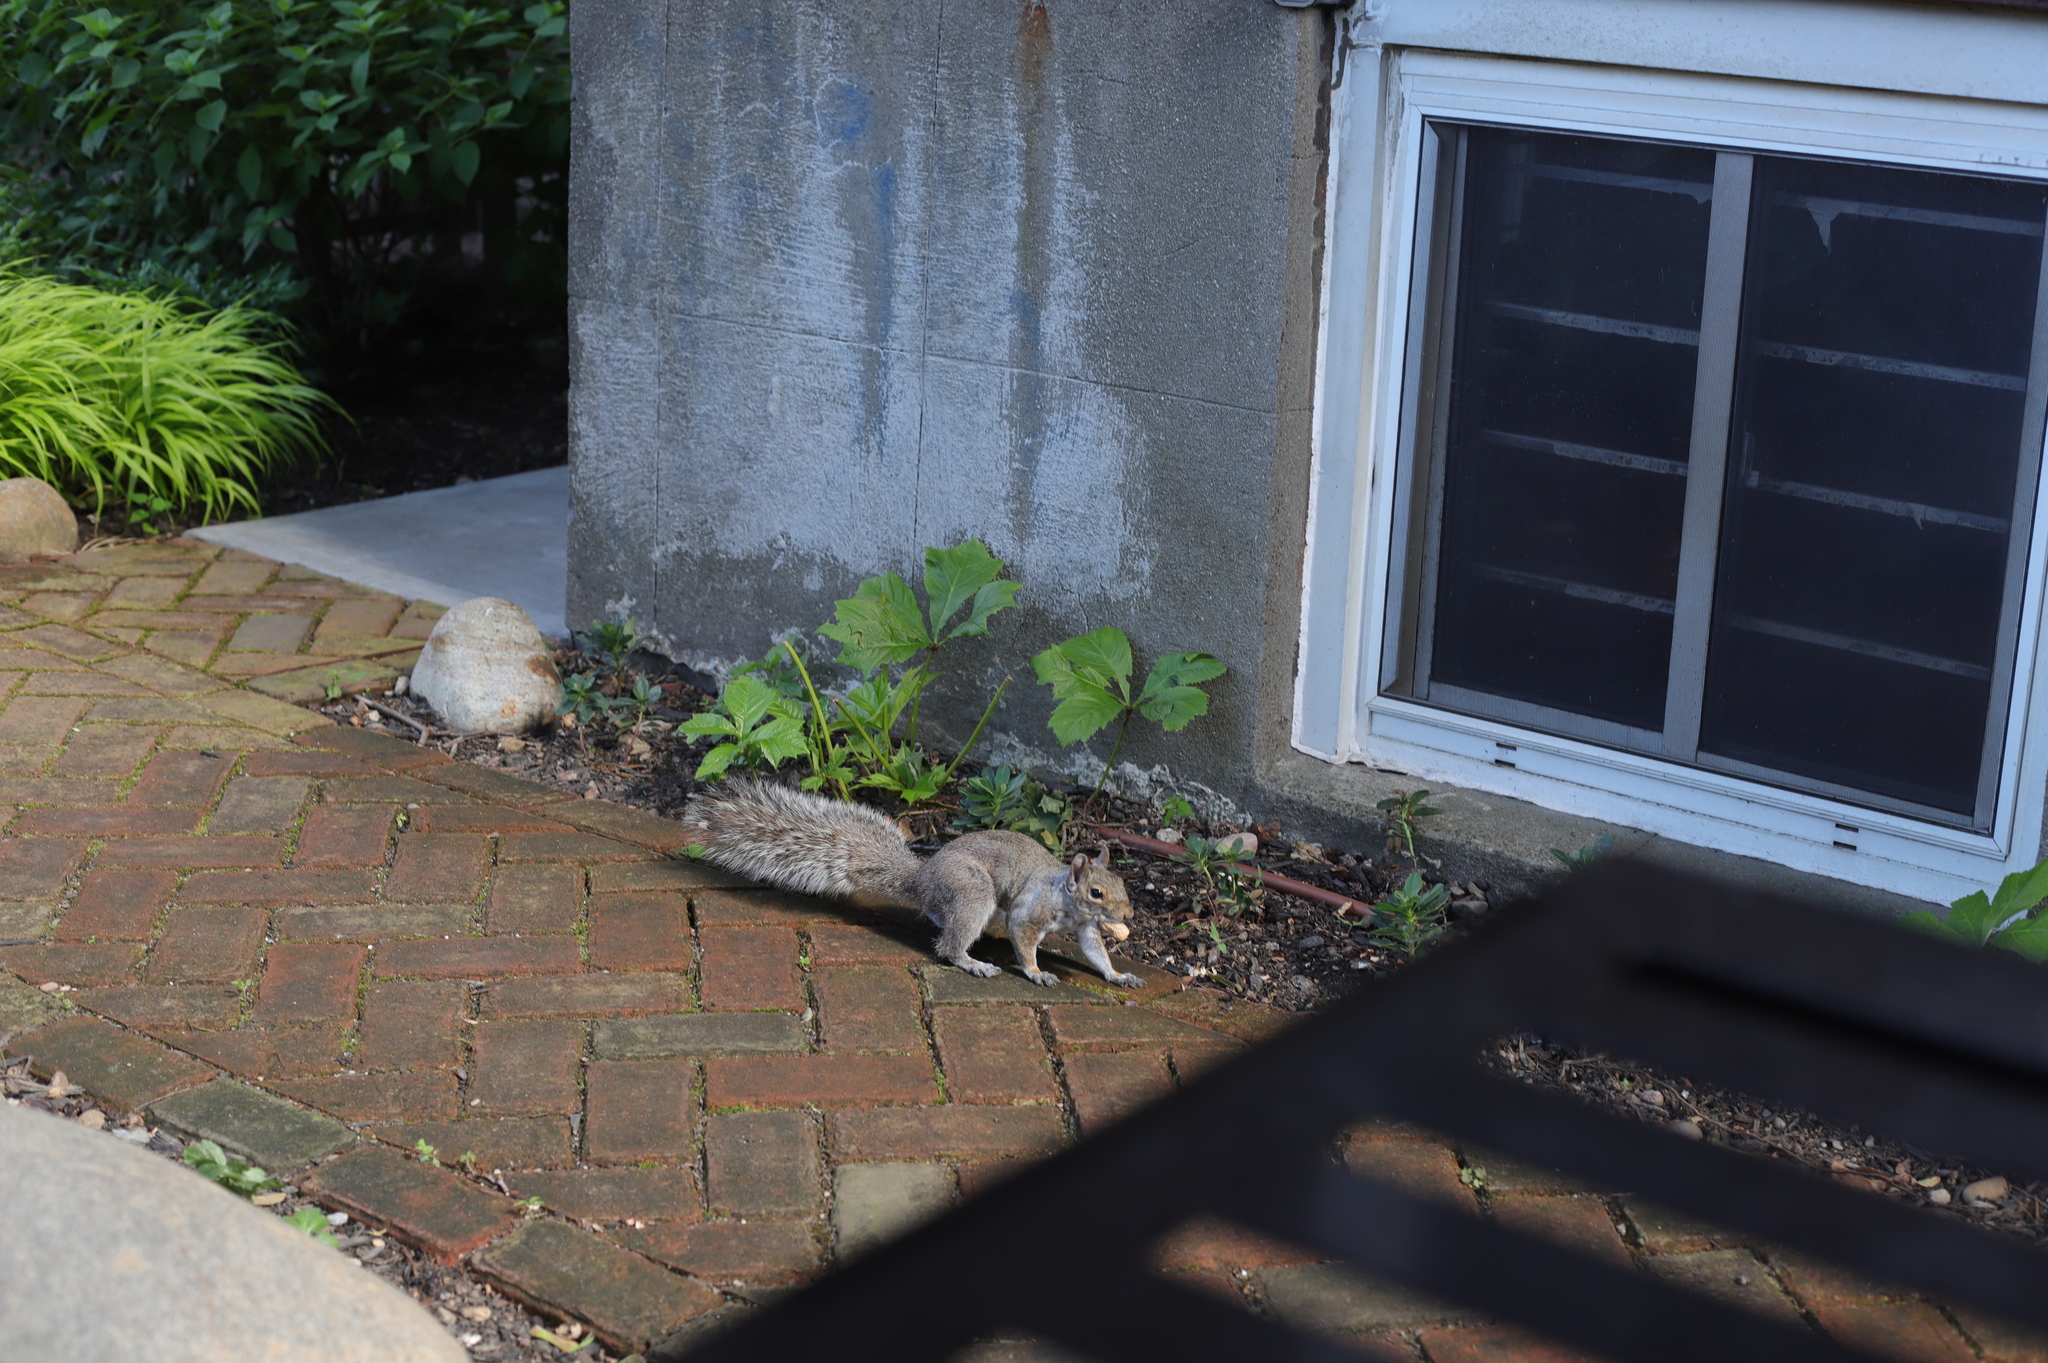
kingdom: Animalia
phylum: Chordata
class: Mammalia
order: Rodentia
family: Sciuridae
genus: Sciurus
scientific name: Sciurus carolinensis
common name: Eastern gray squirrel
